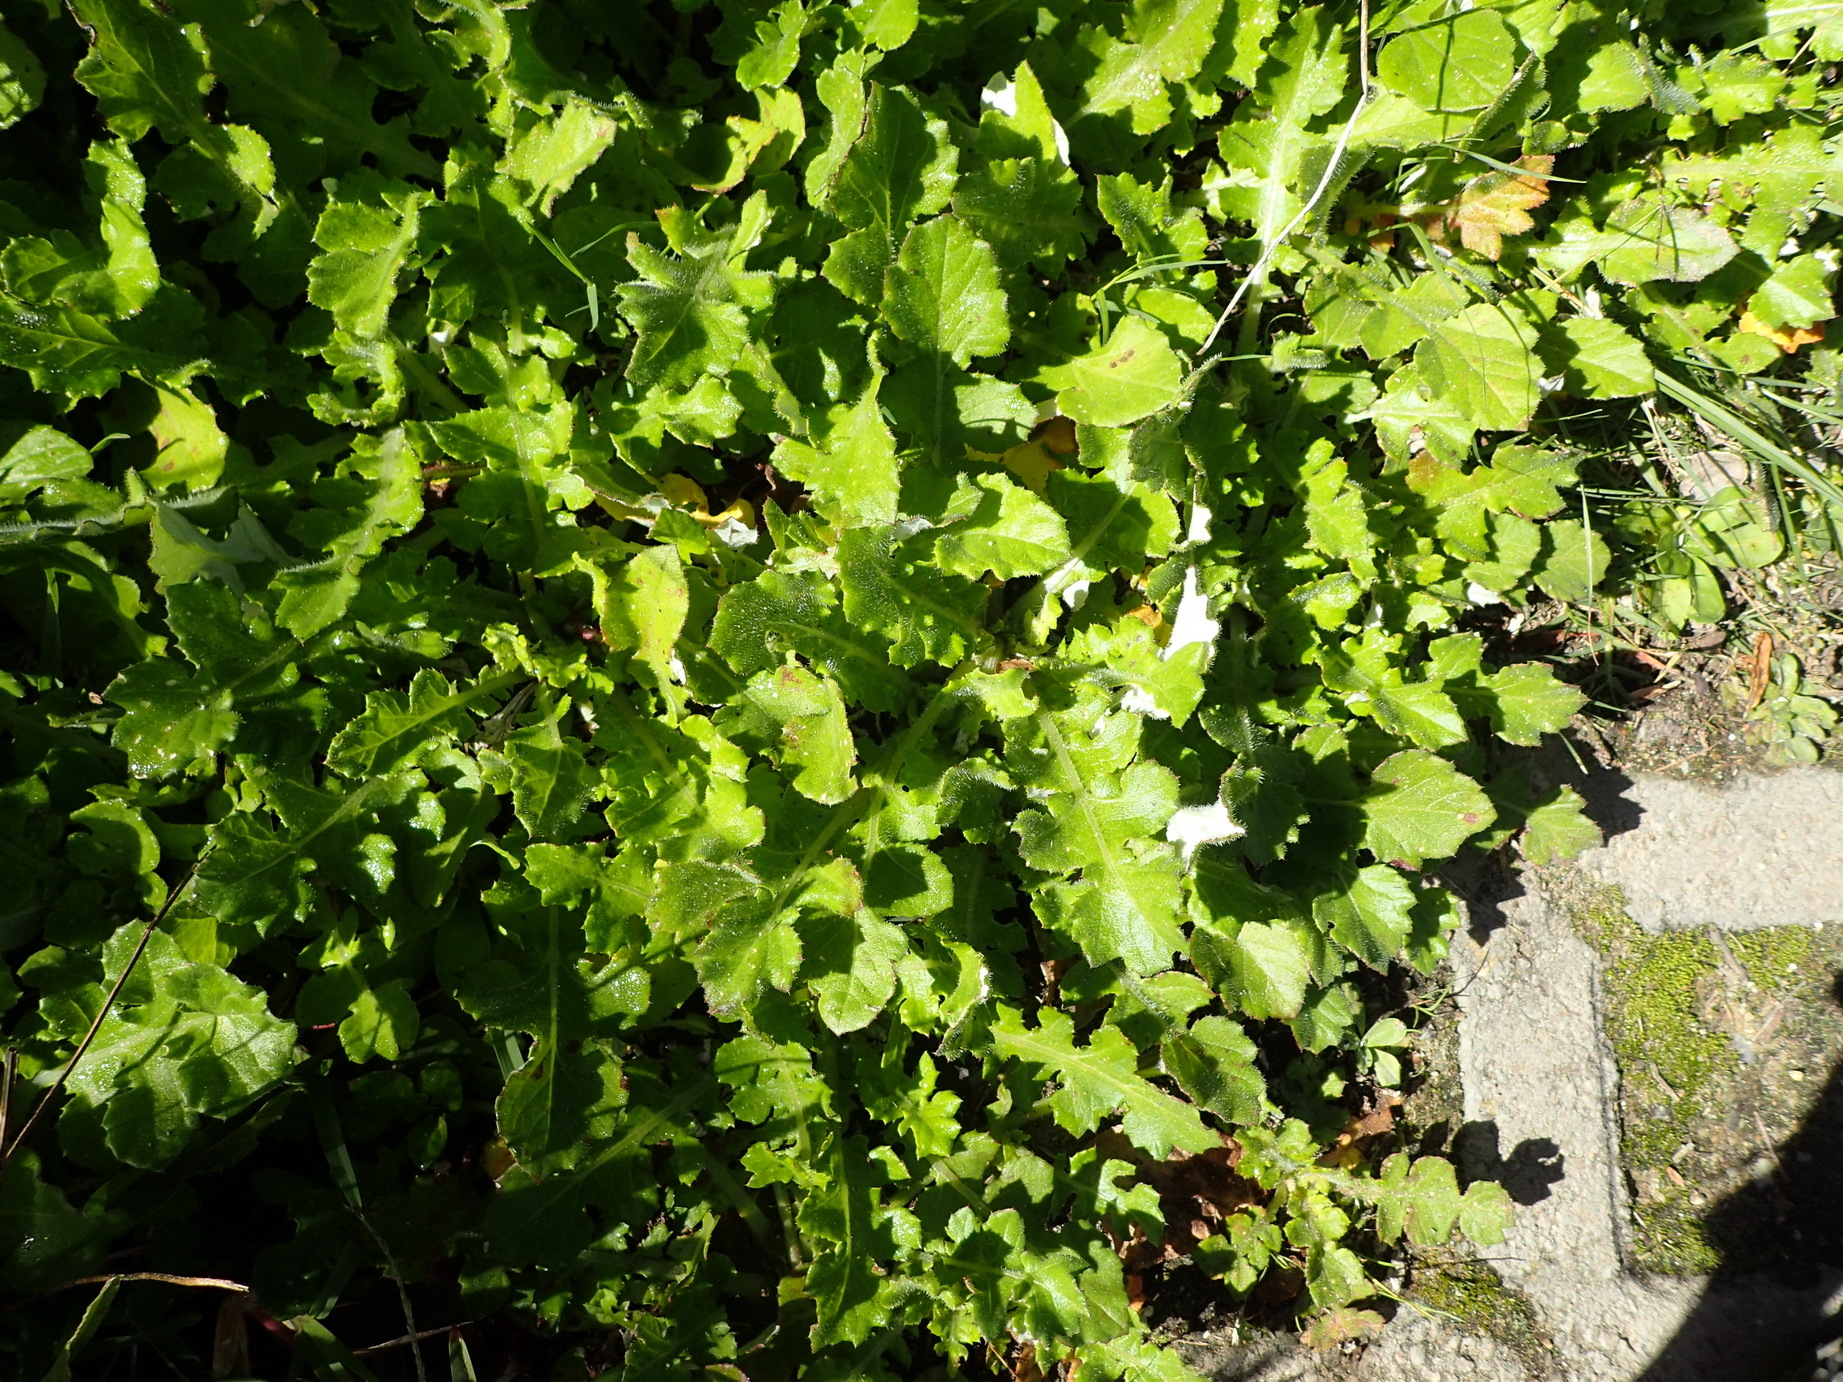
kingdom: Plantae
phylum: Tracheophyta
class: Magnoliopsida
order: Asterales
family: Asteraceae
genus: Arctotheca
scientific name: Arctotheca prostrata
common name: Capeweed
